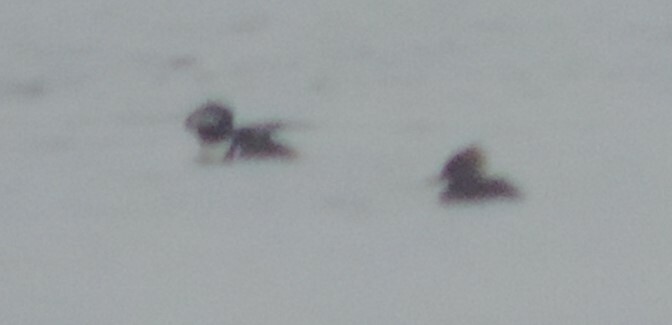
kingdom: Animalia
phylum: Chordata
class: Aves
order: Anseriformes
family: Anatidae
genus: Lophodytes
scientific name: Lophodytes cucullatus
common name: Hooded merganser
